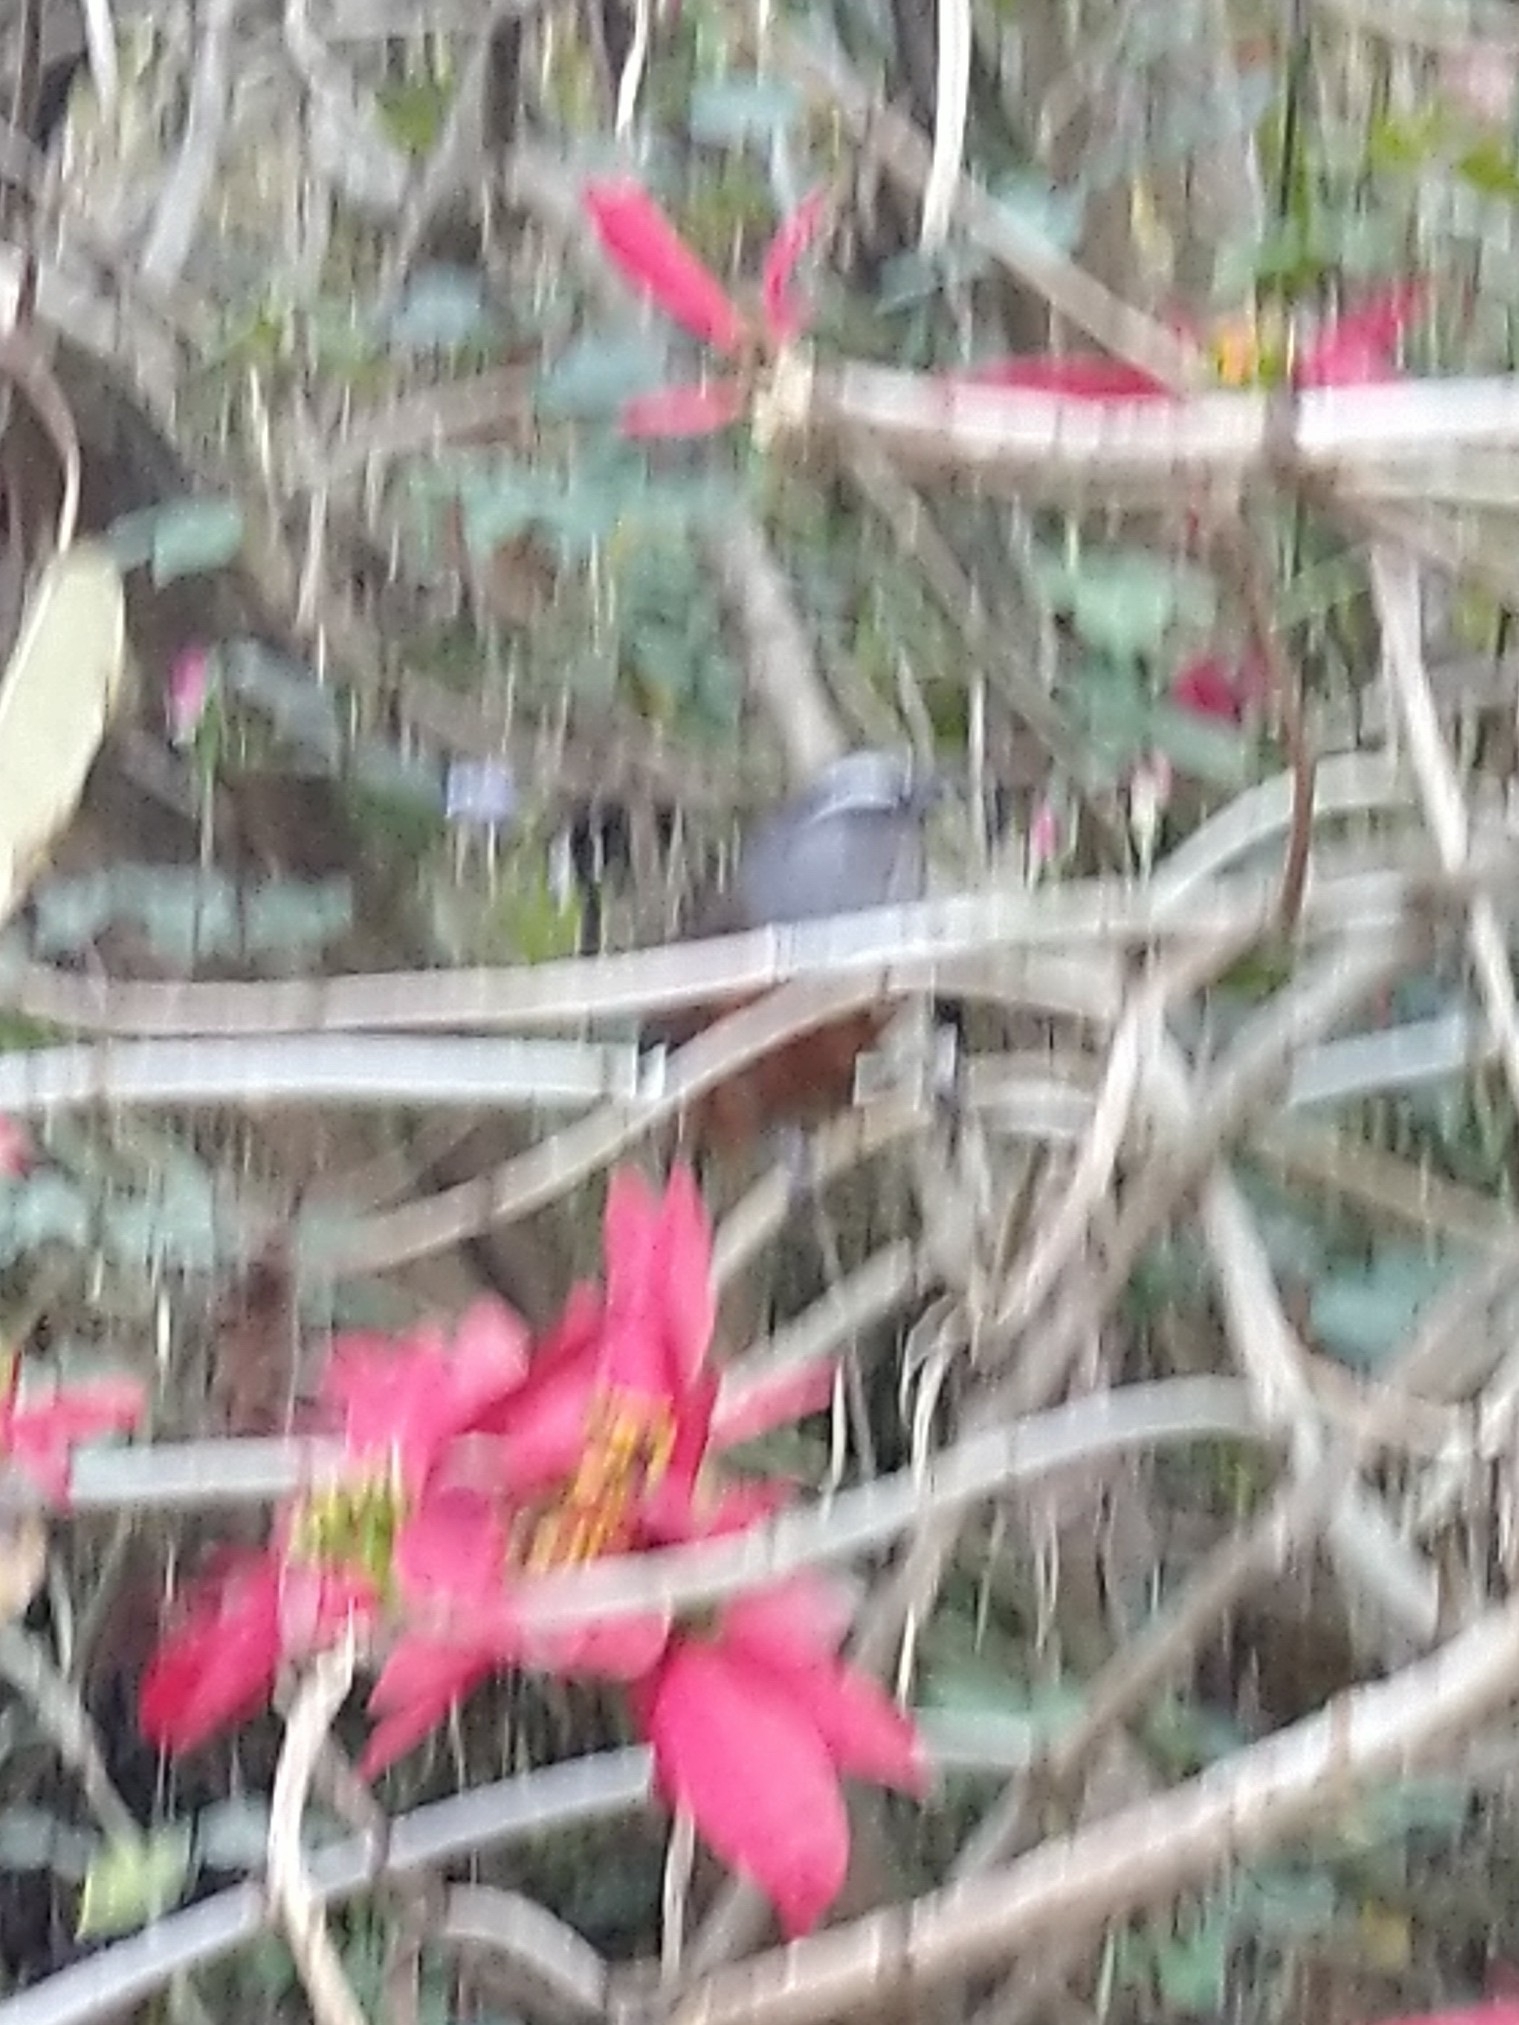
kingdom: Animalia
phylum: Chordata
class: Aves
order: Passeriformes
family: Leiothrichidae
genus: Trochalopteron
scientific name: Trochalopteron fairbanki
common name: Kerala laughingthrush
